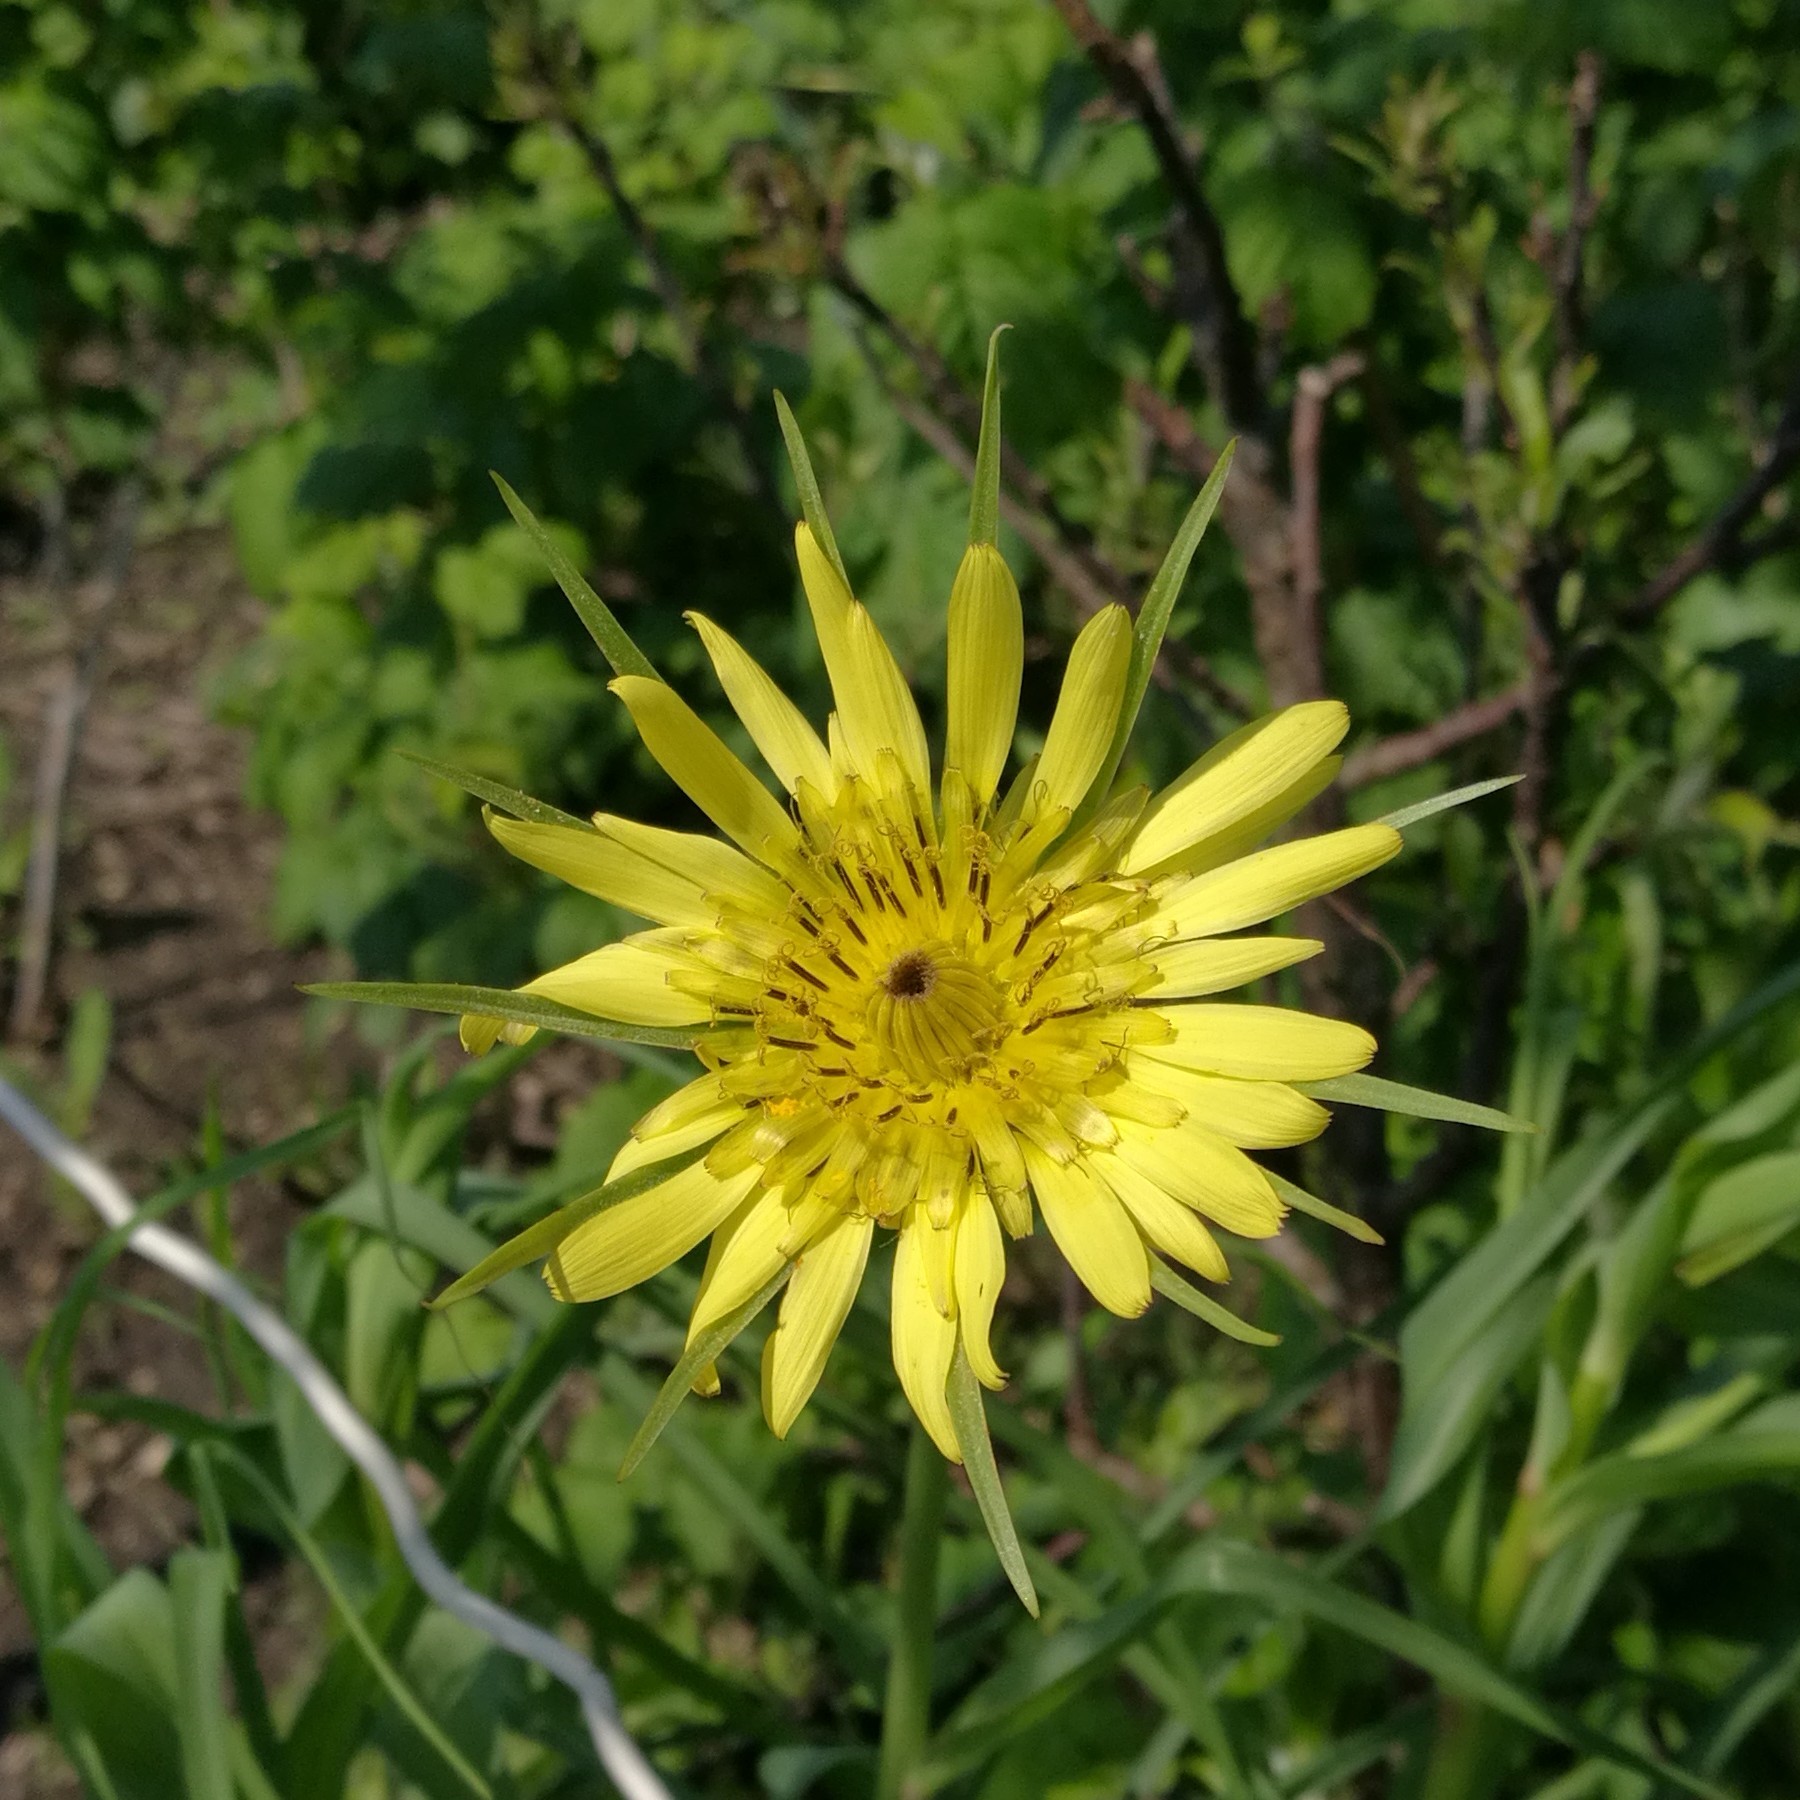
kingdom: Plantae
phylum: Tracheophyta
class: Magnoliopsida
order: Asterales
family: Asteraceae
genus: Tragopogon
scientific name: Tragopogon dubius
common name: Yellow salsify
